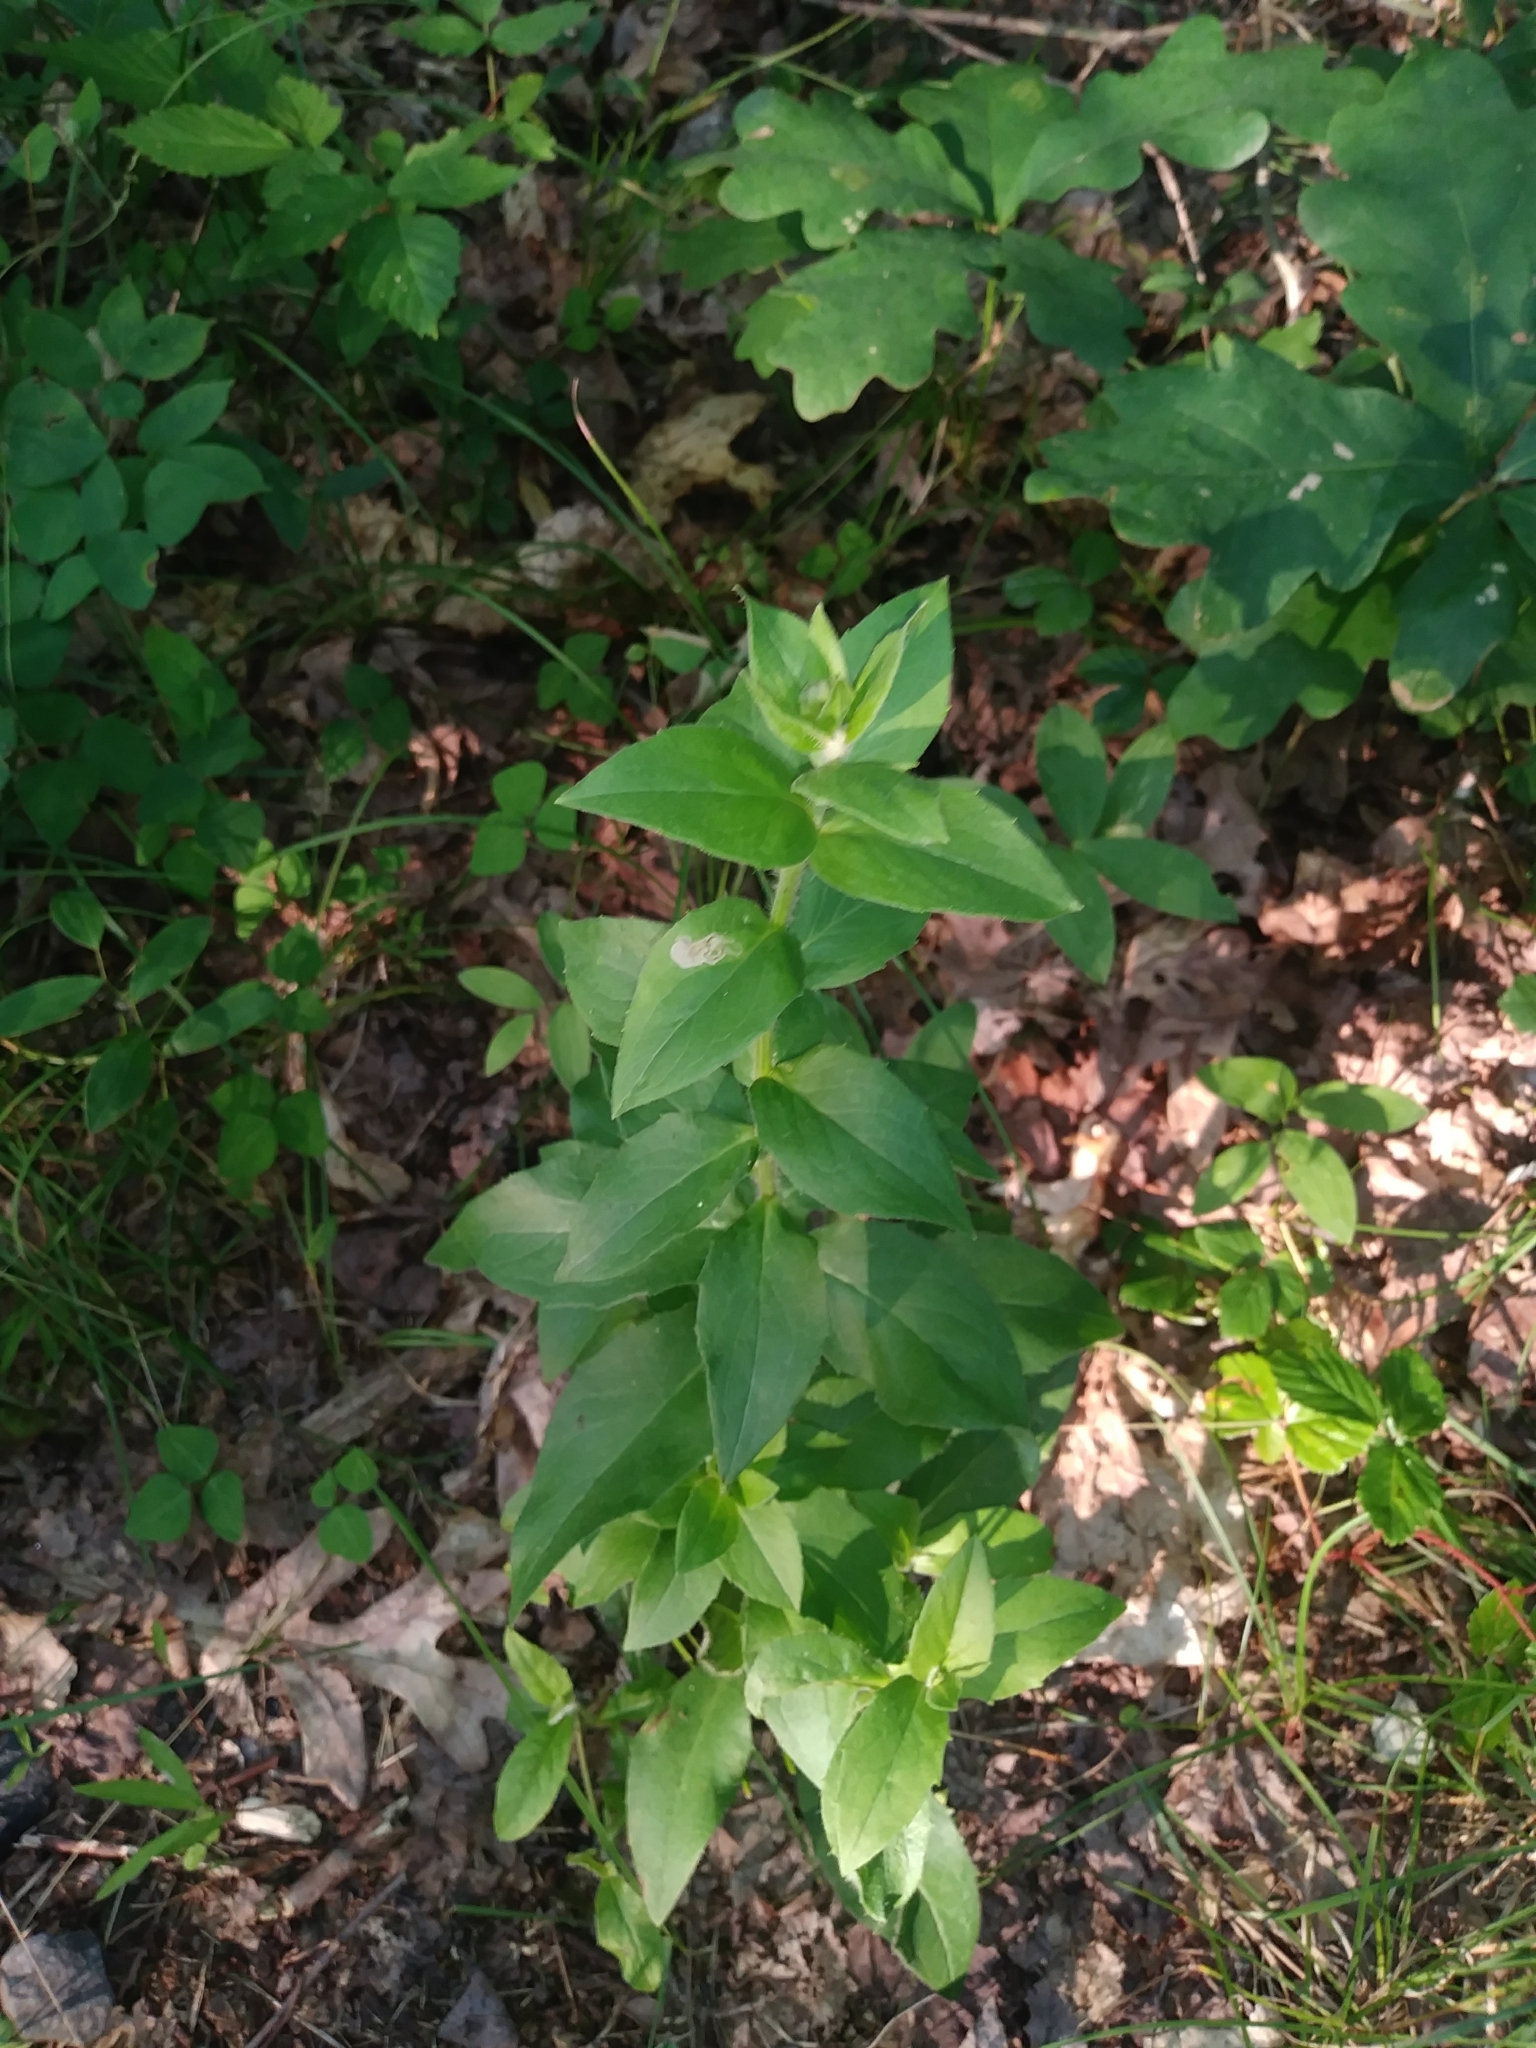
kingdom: Plantae
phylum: Tracheophyta
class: Magnoliopsida
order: Asterales
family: Asteraceae
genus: Hieracium
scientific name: Hieracium sabaudum
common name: New england hawkweed
